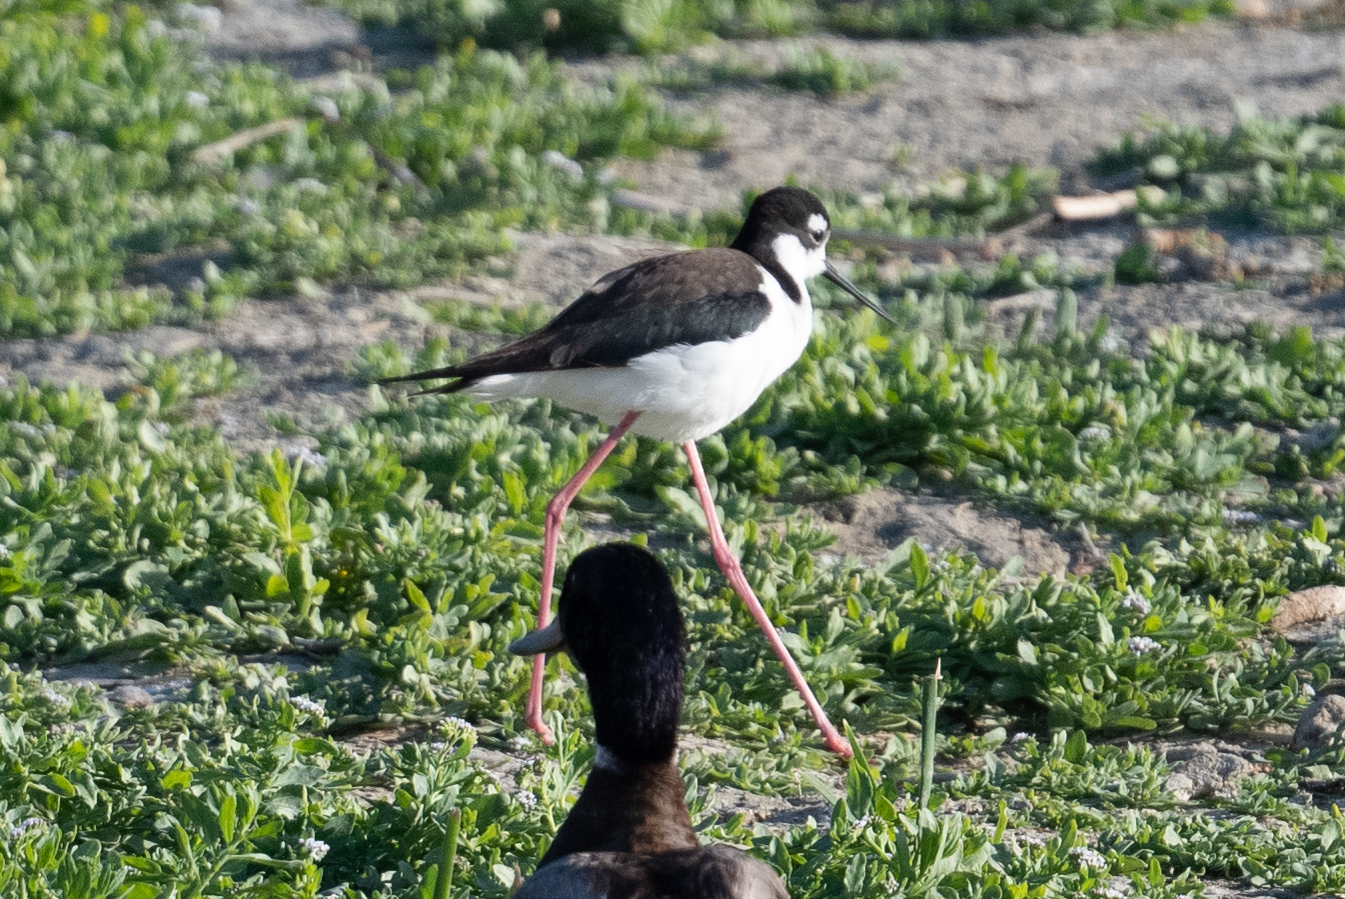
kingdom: Animalia
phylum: Chordata
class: Aves
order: Charadriiformes
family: Recurvirostridae
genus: Himantopus
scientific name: Himantopus mexicanus
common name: Black-necked stilt
